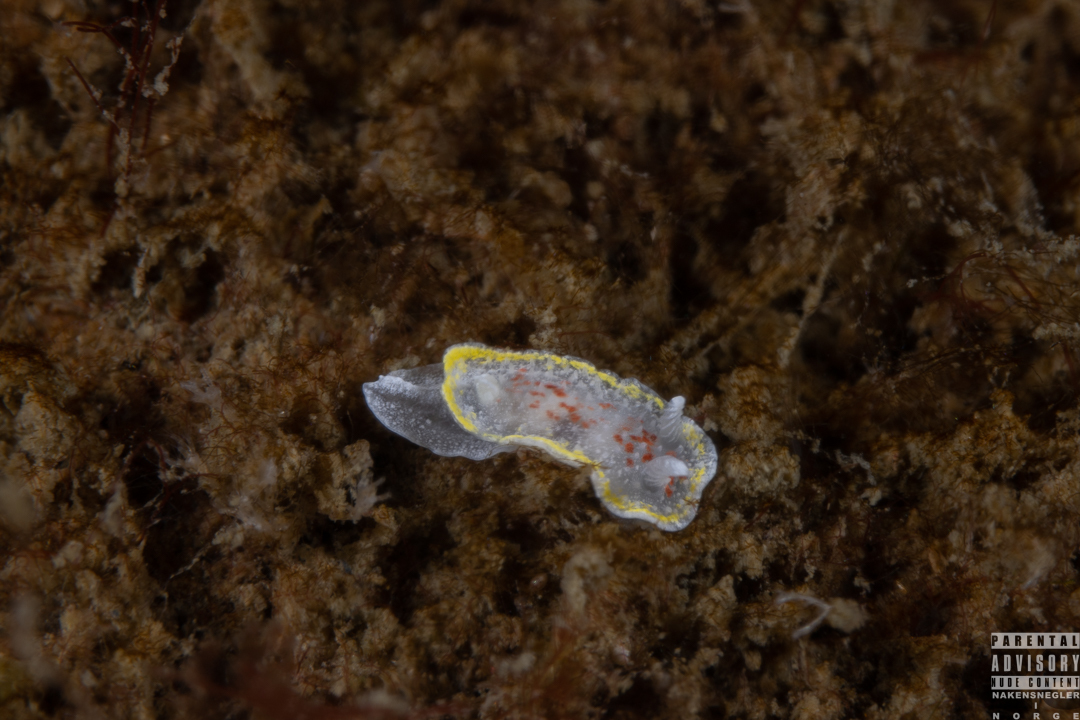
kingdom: Animalia
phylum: Mollusca
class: Gastropoda
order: Nudibranchia
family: Calycidorididae
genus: Diaphorodoris
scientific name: Diaphorodoris luteocincta
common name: Fried egg nudibranch
